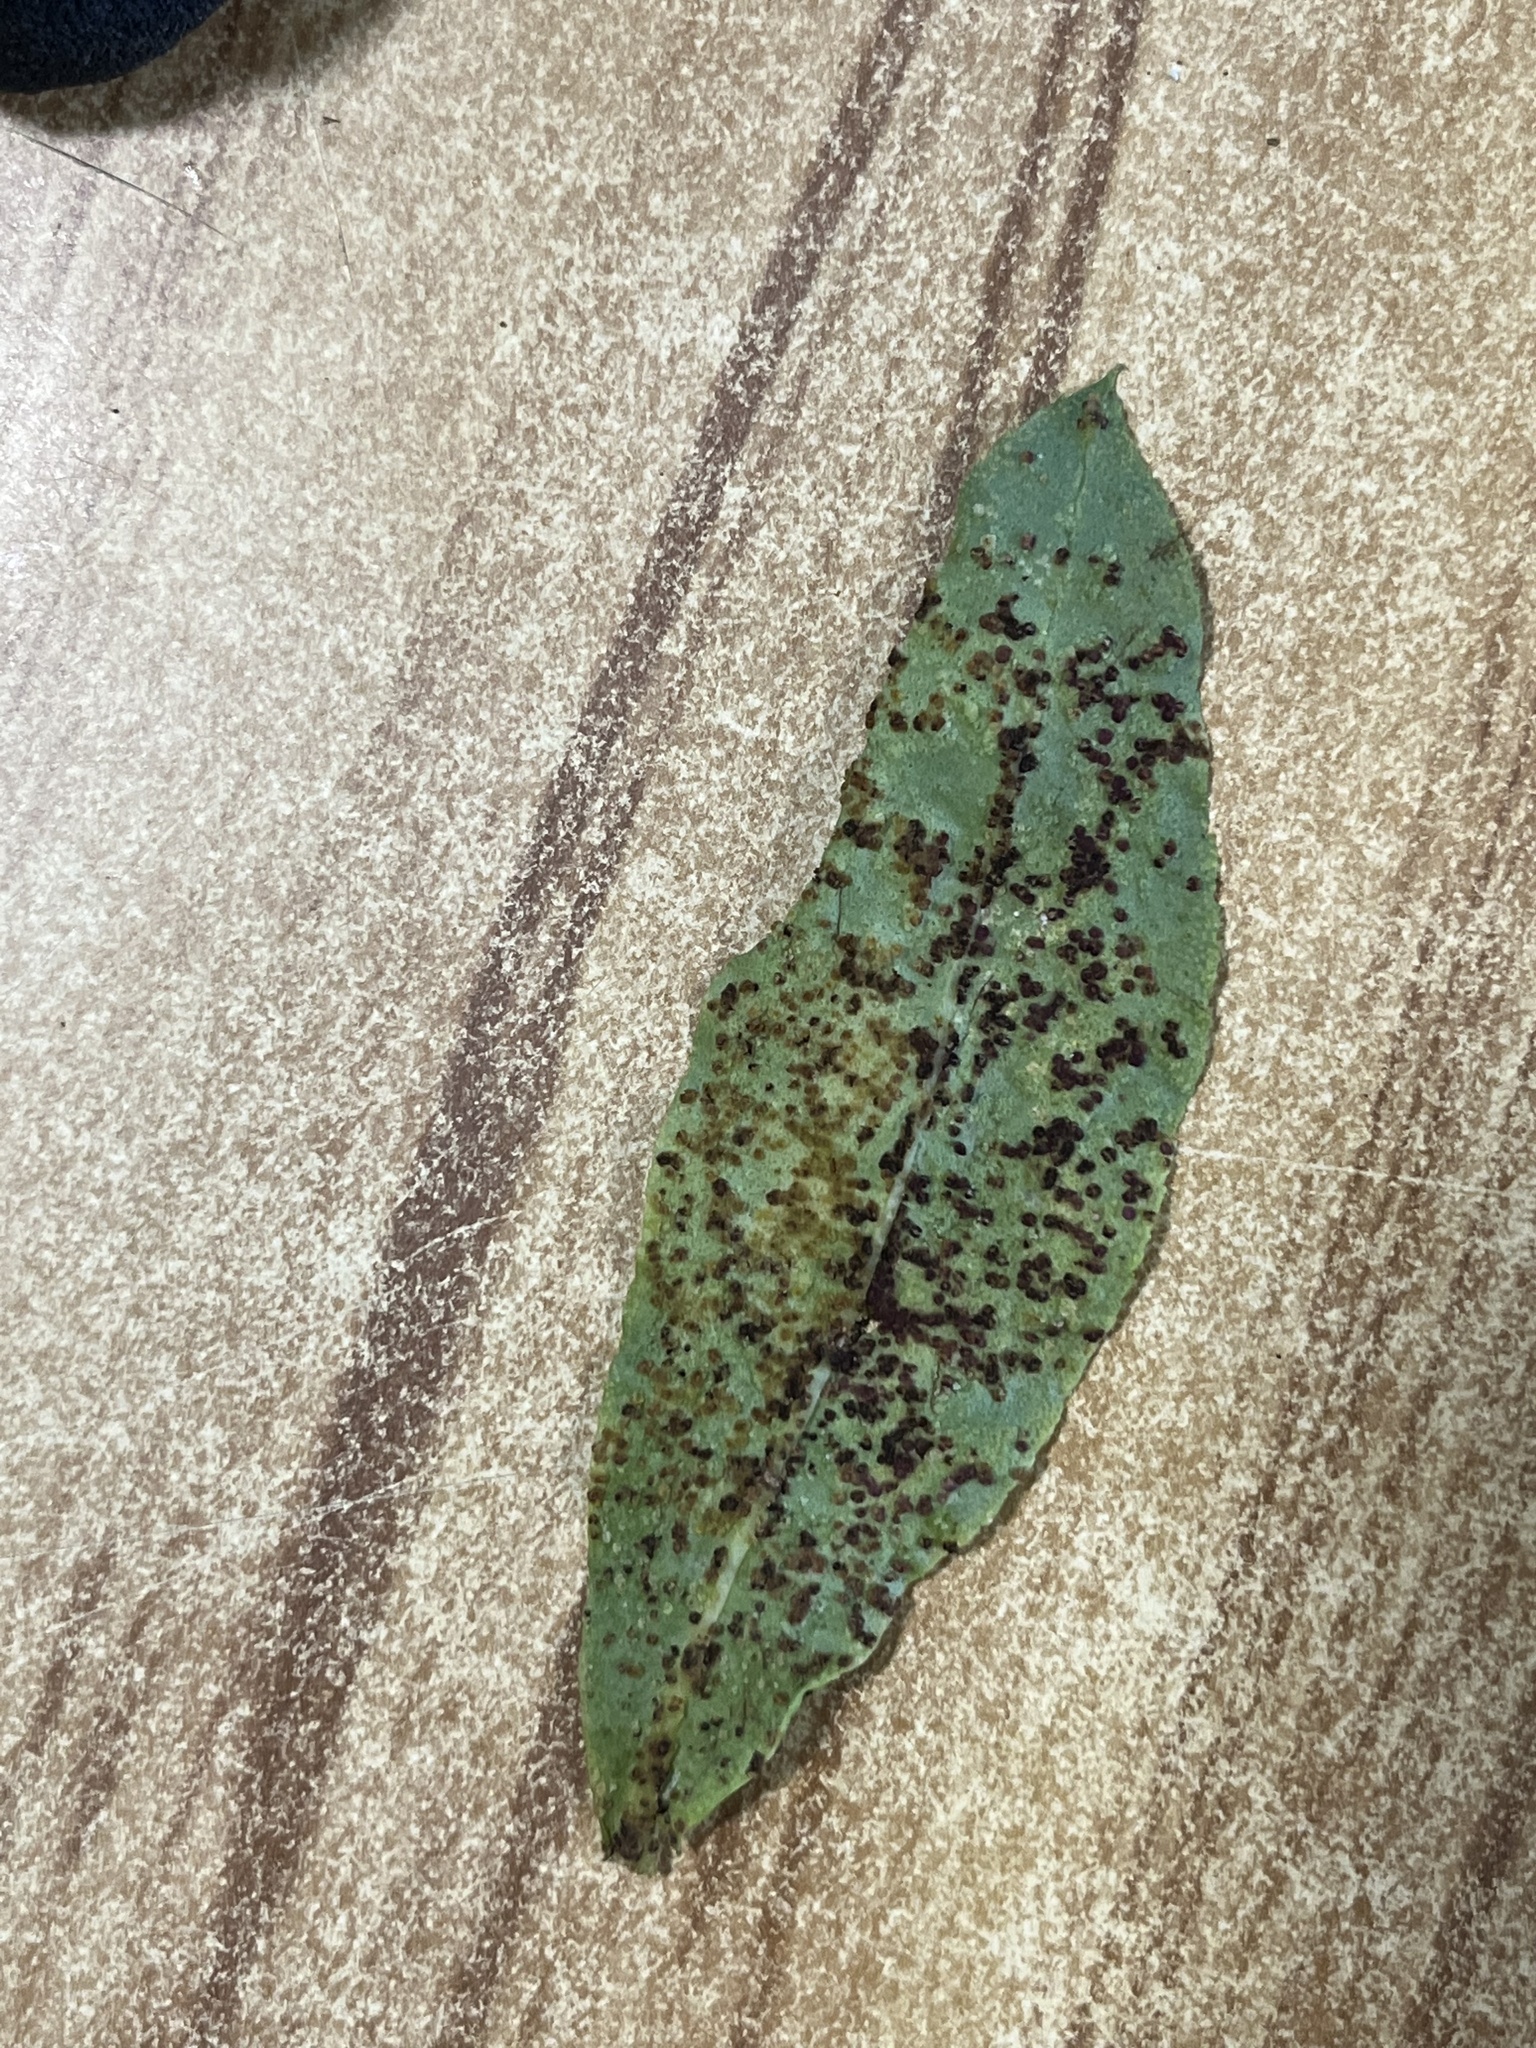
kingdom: Animalia
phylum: Arthropoda
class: Arachnida
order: Trombidiformes
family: Eriophyidae
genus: Aceria
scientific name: Aceria healyi
